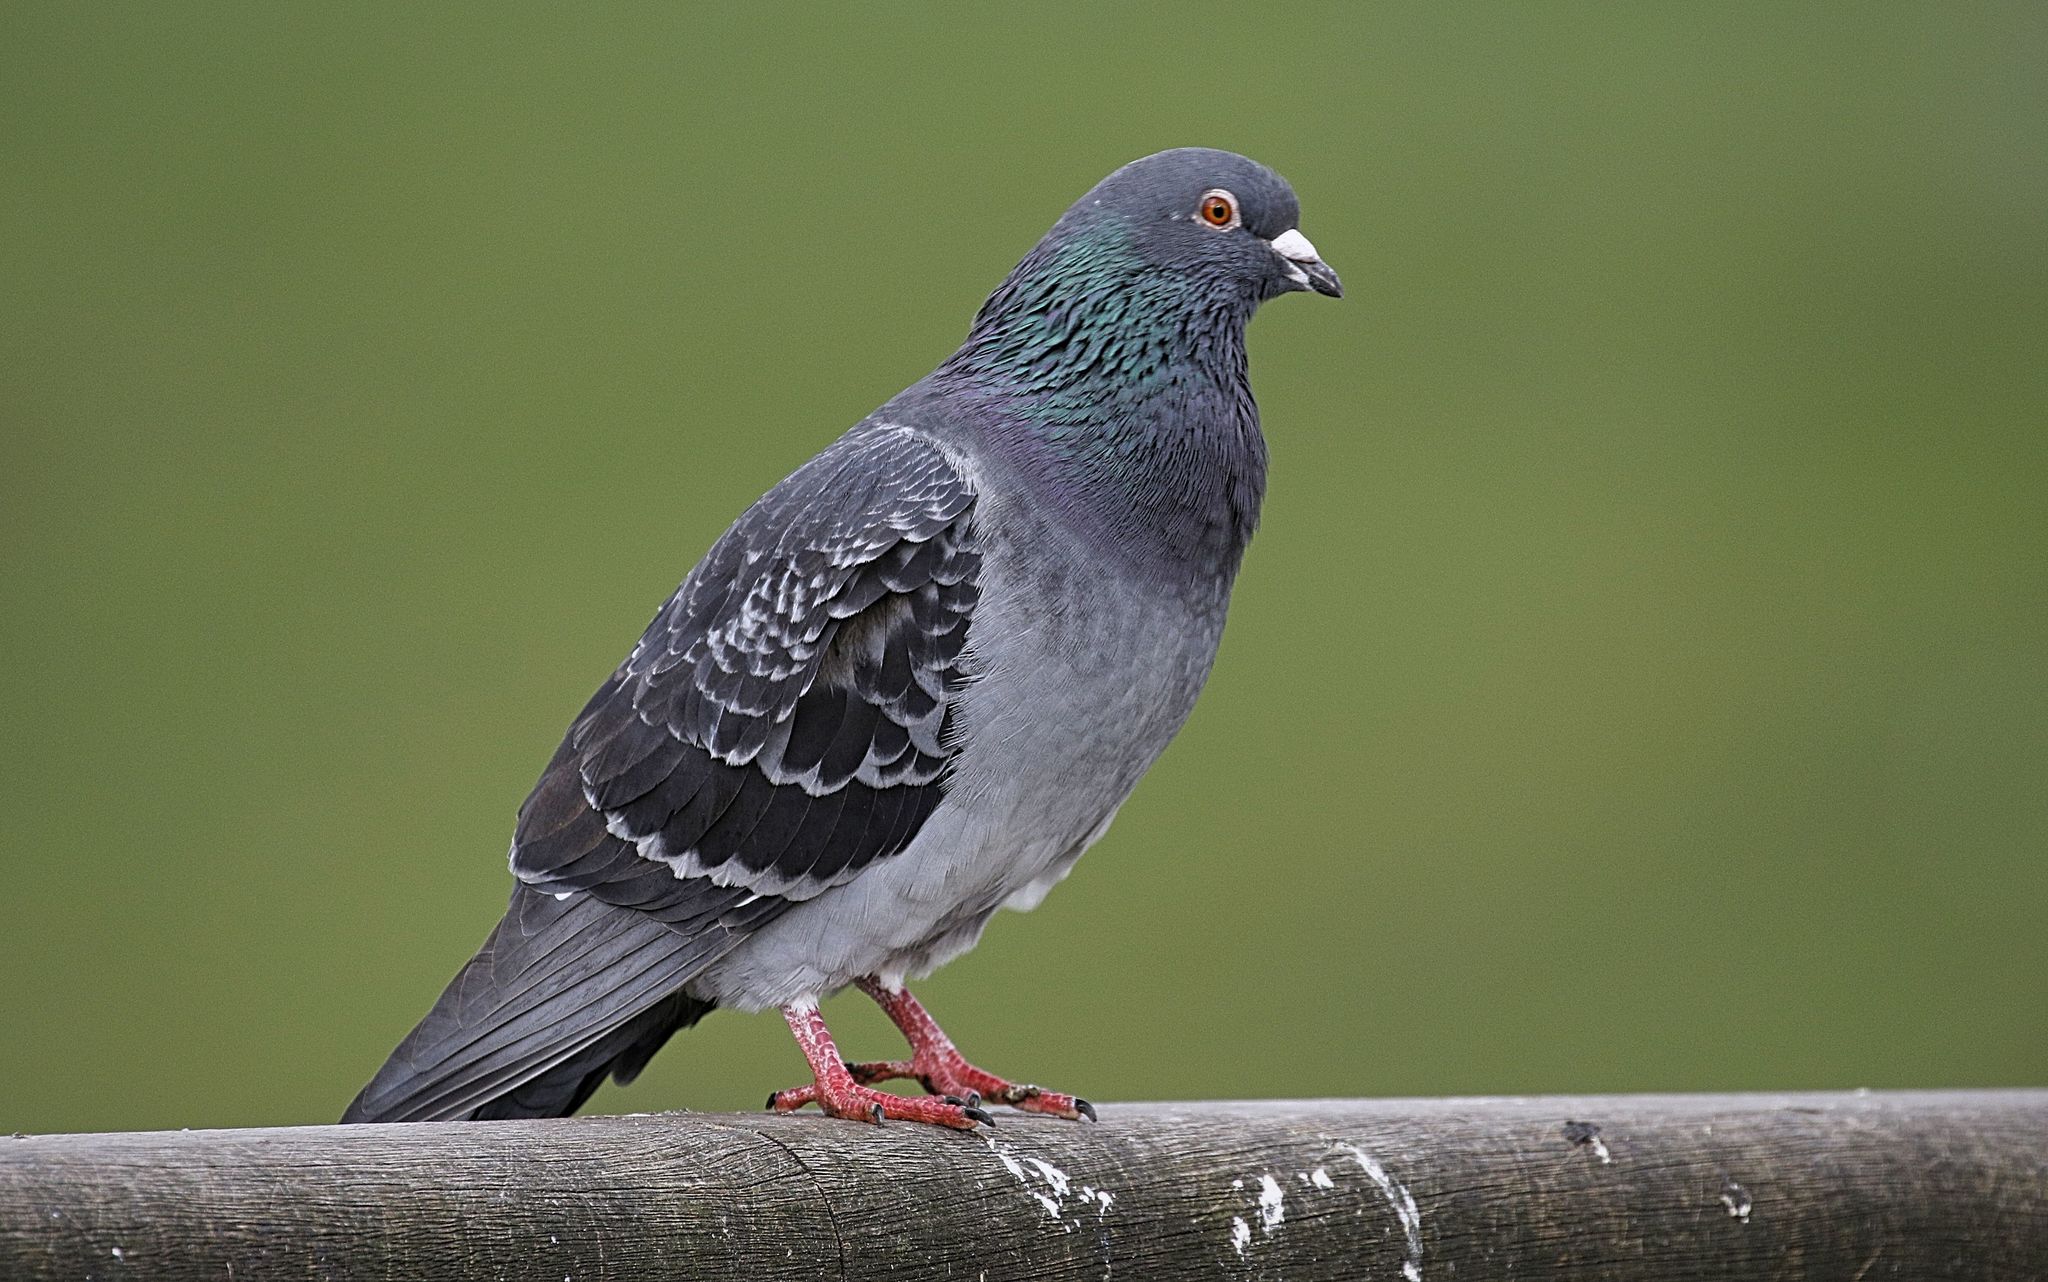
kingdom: Animalia
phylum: Chordata
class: Aves
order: Columbiformes
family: Columbidae
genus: Columba
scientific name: Columba livia
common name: Rock pigeon
